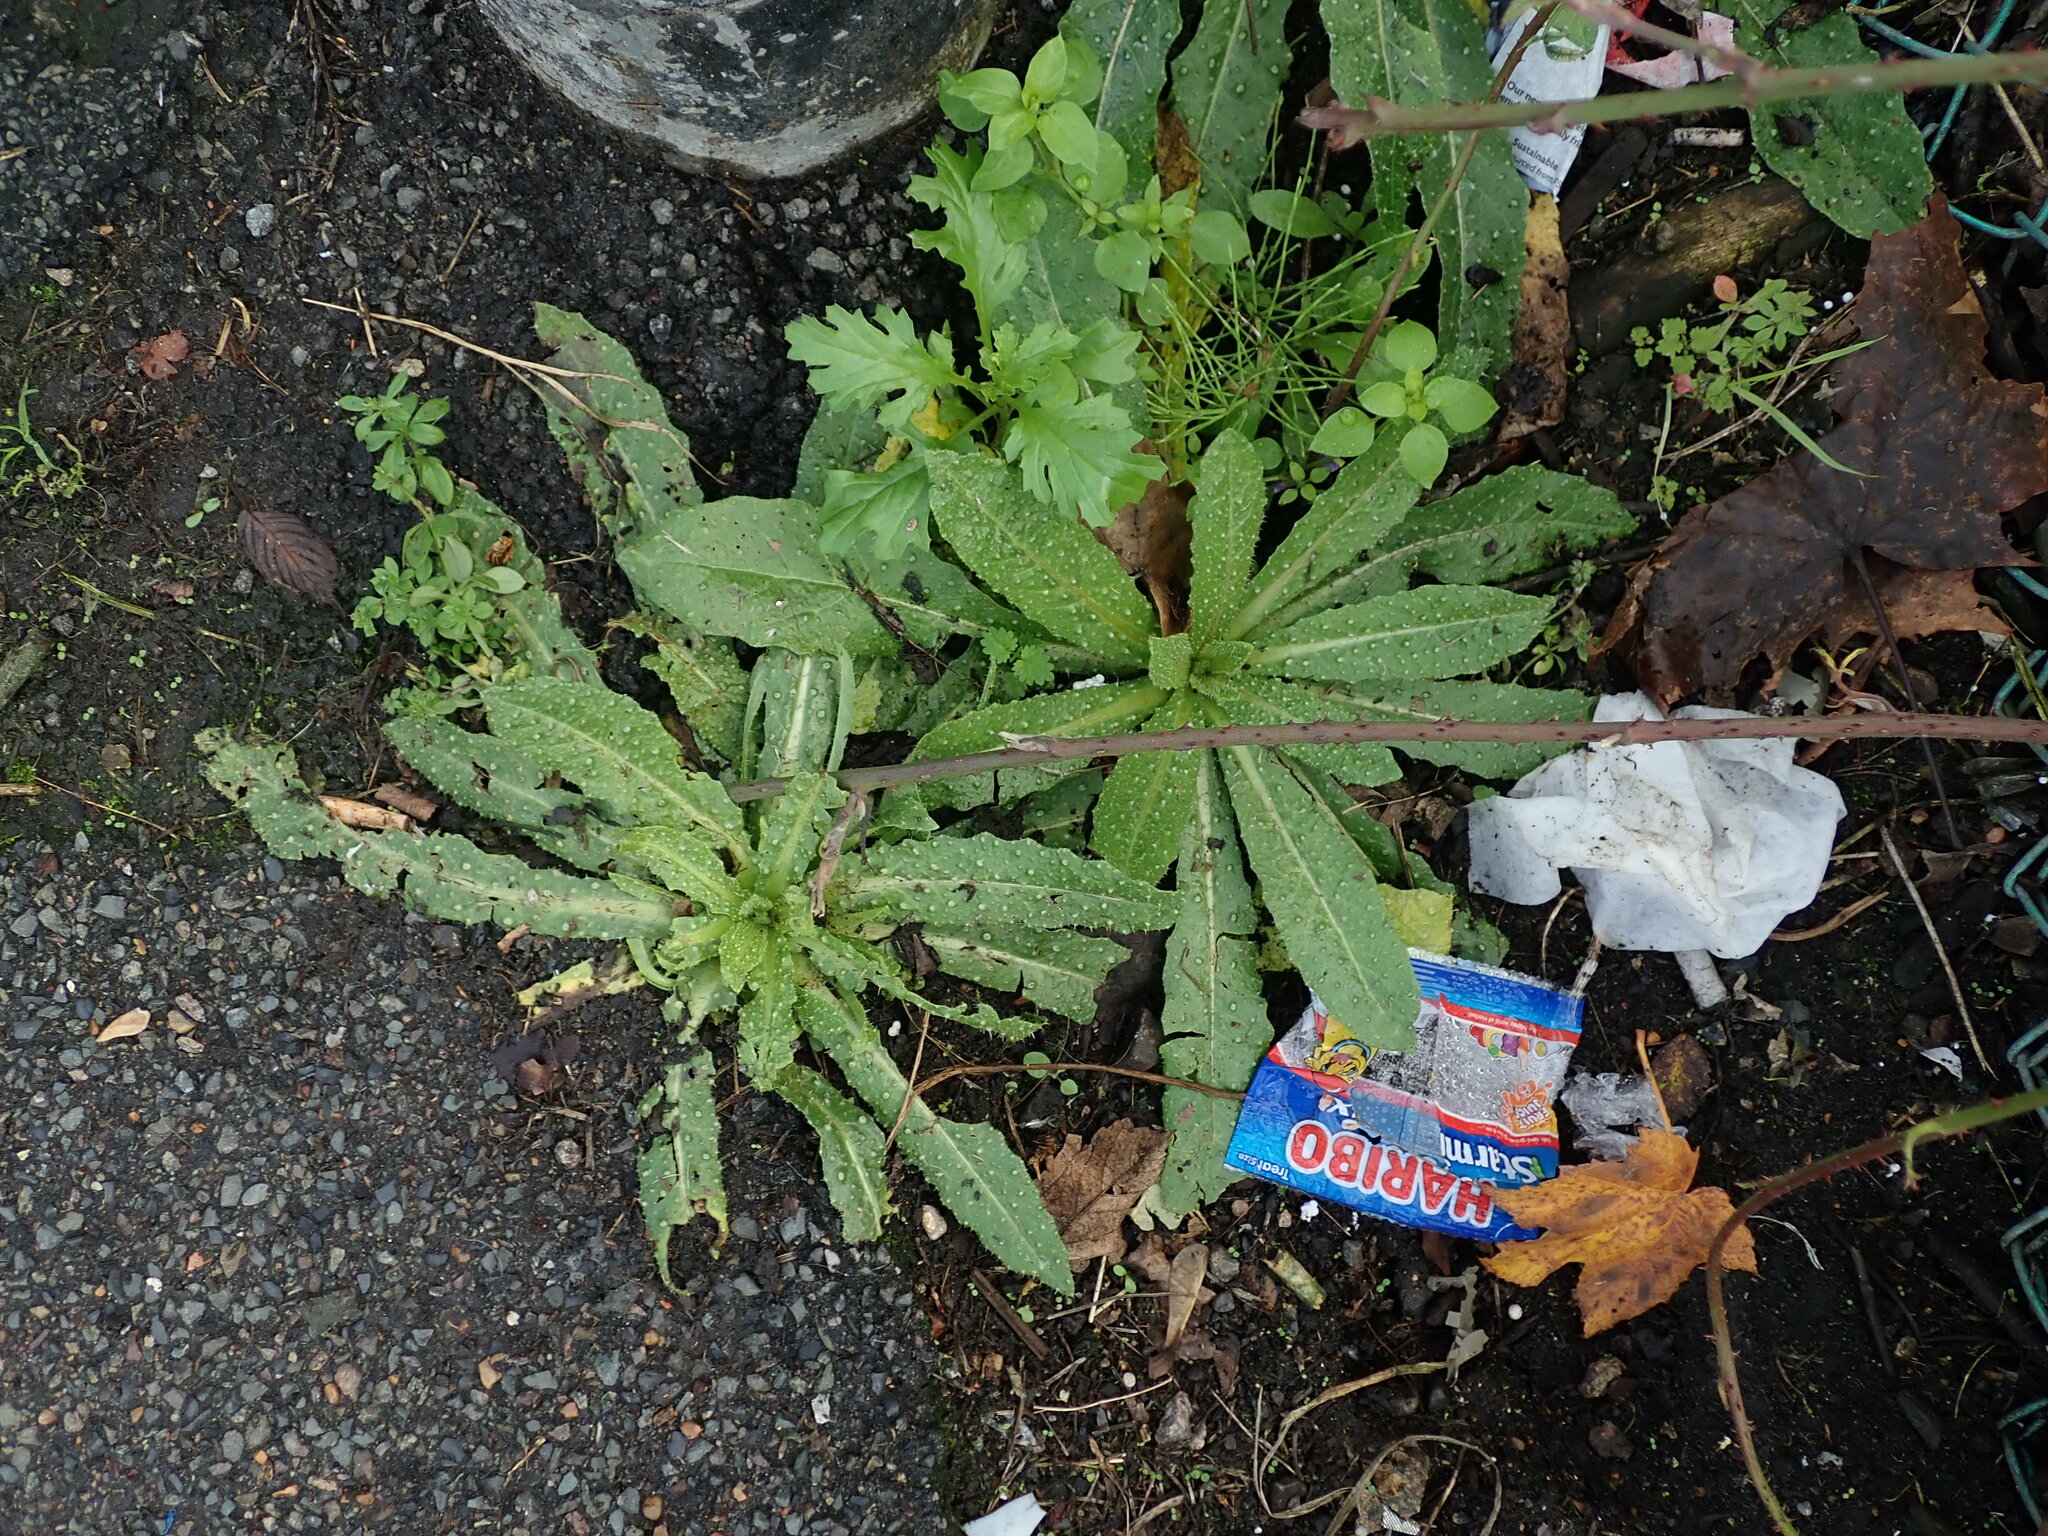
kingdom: Plantae
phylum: Tracheophyta
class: Magnoliopsida
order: Asterales
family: Asteraceae
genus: Helminthotheca
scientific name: Helminthotheca echioides
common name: Ox-tongue
